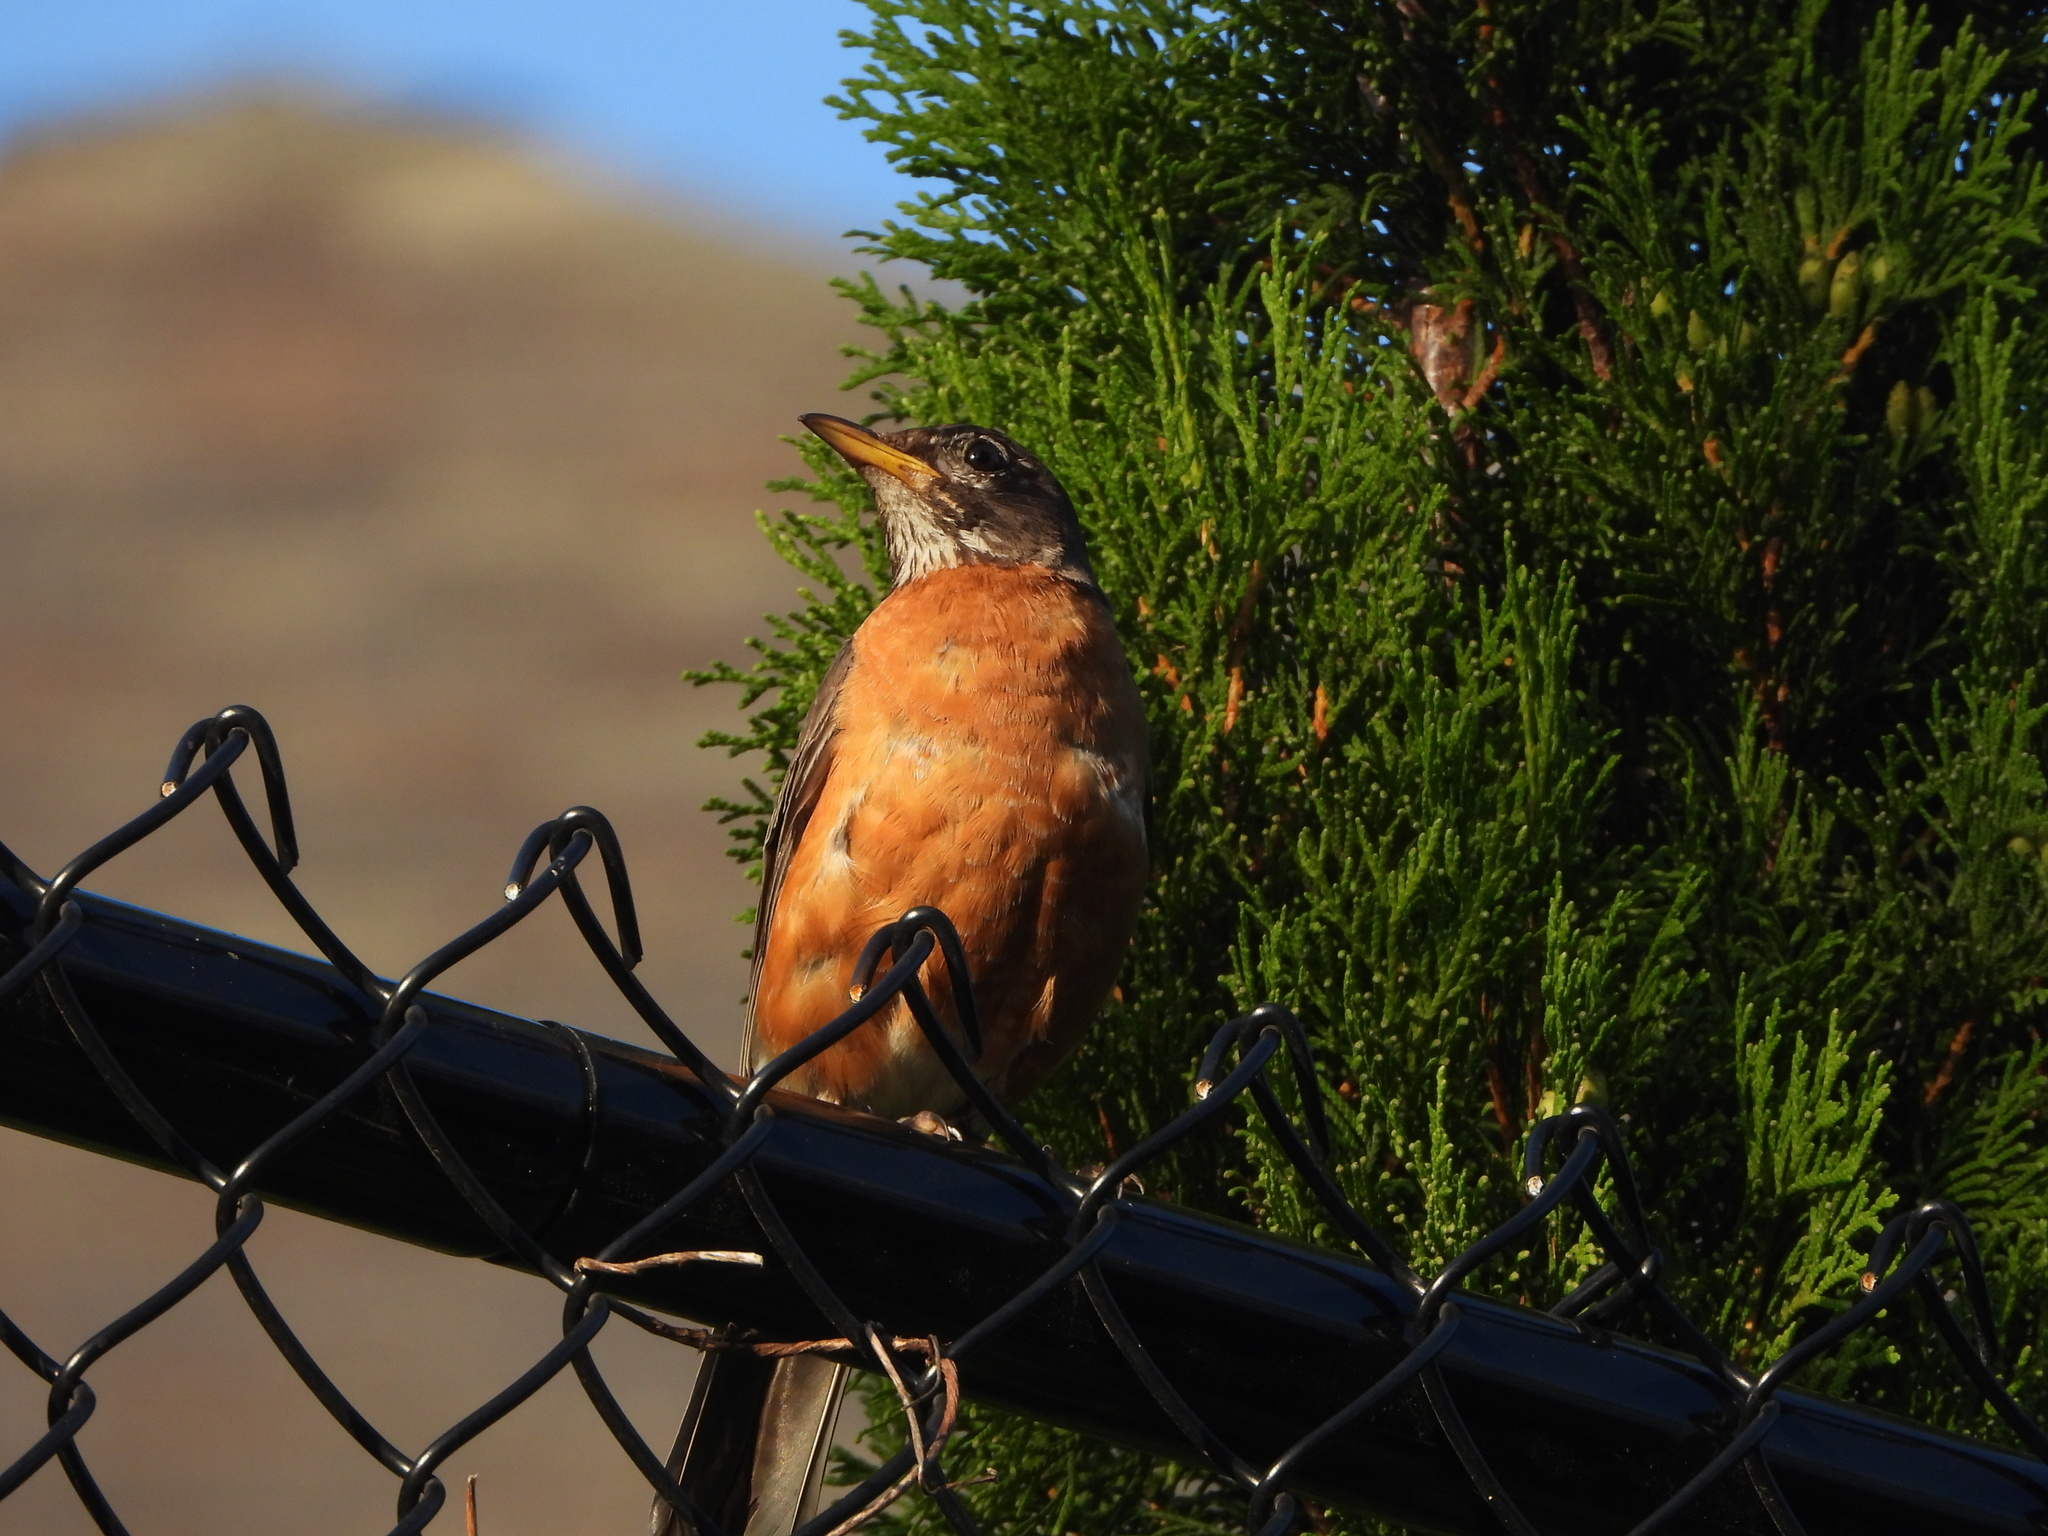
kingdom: Animalia
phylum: Chordata
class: Aves
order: Passeriformes
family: Turdidae
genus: Turdus
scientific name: Turdus migratorius
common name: American robin
